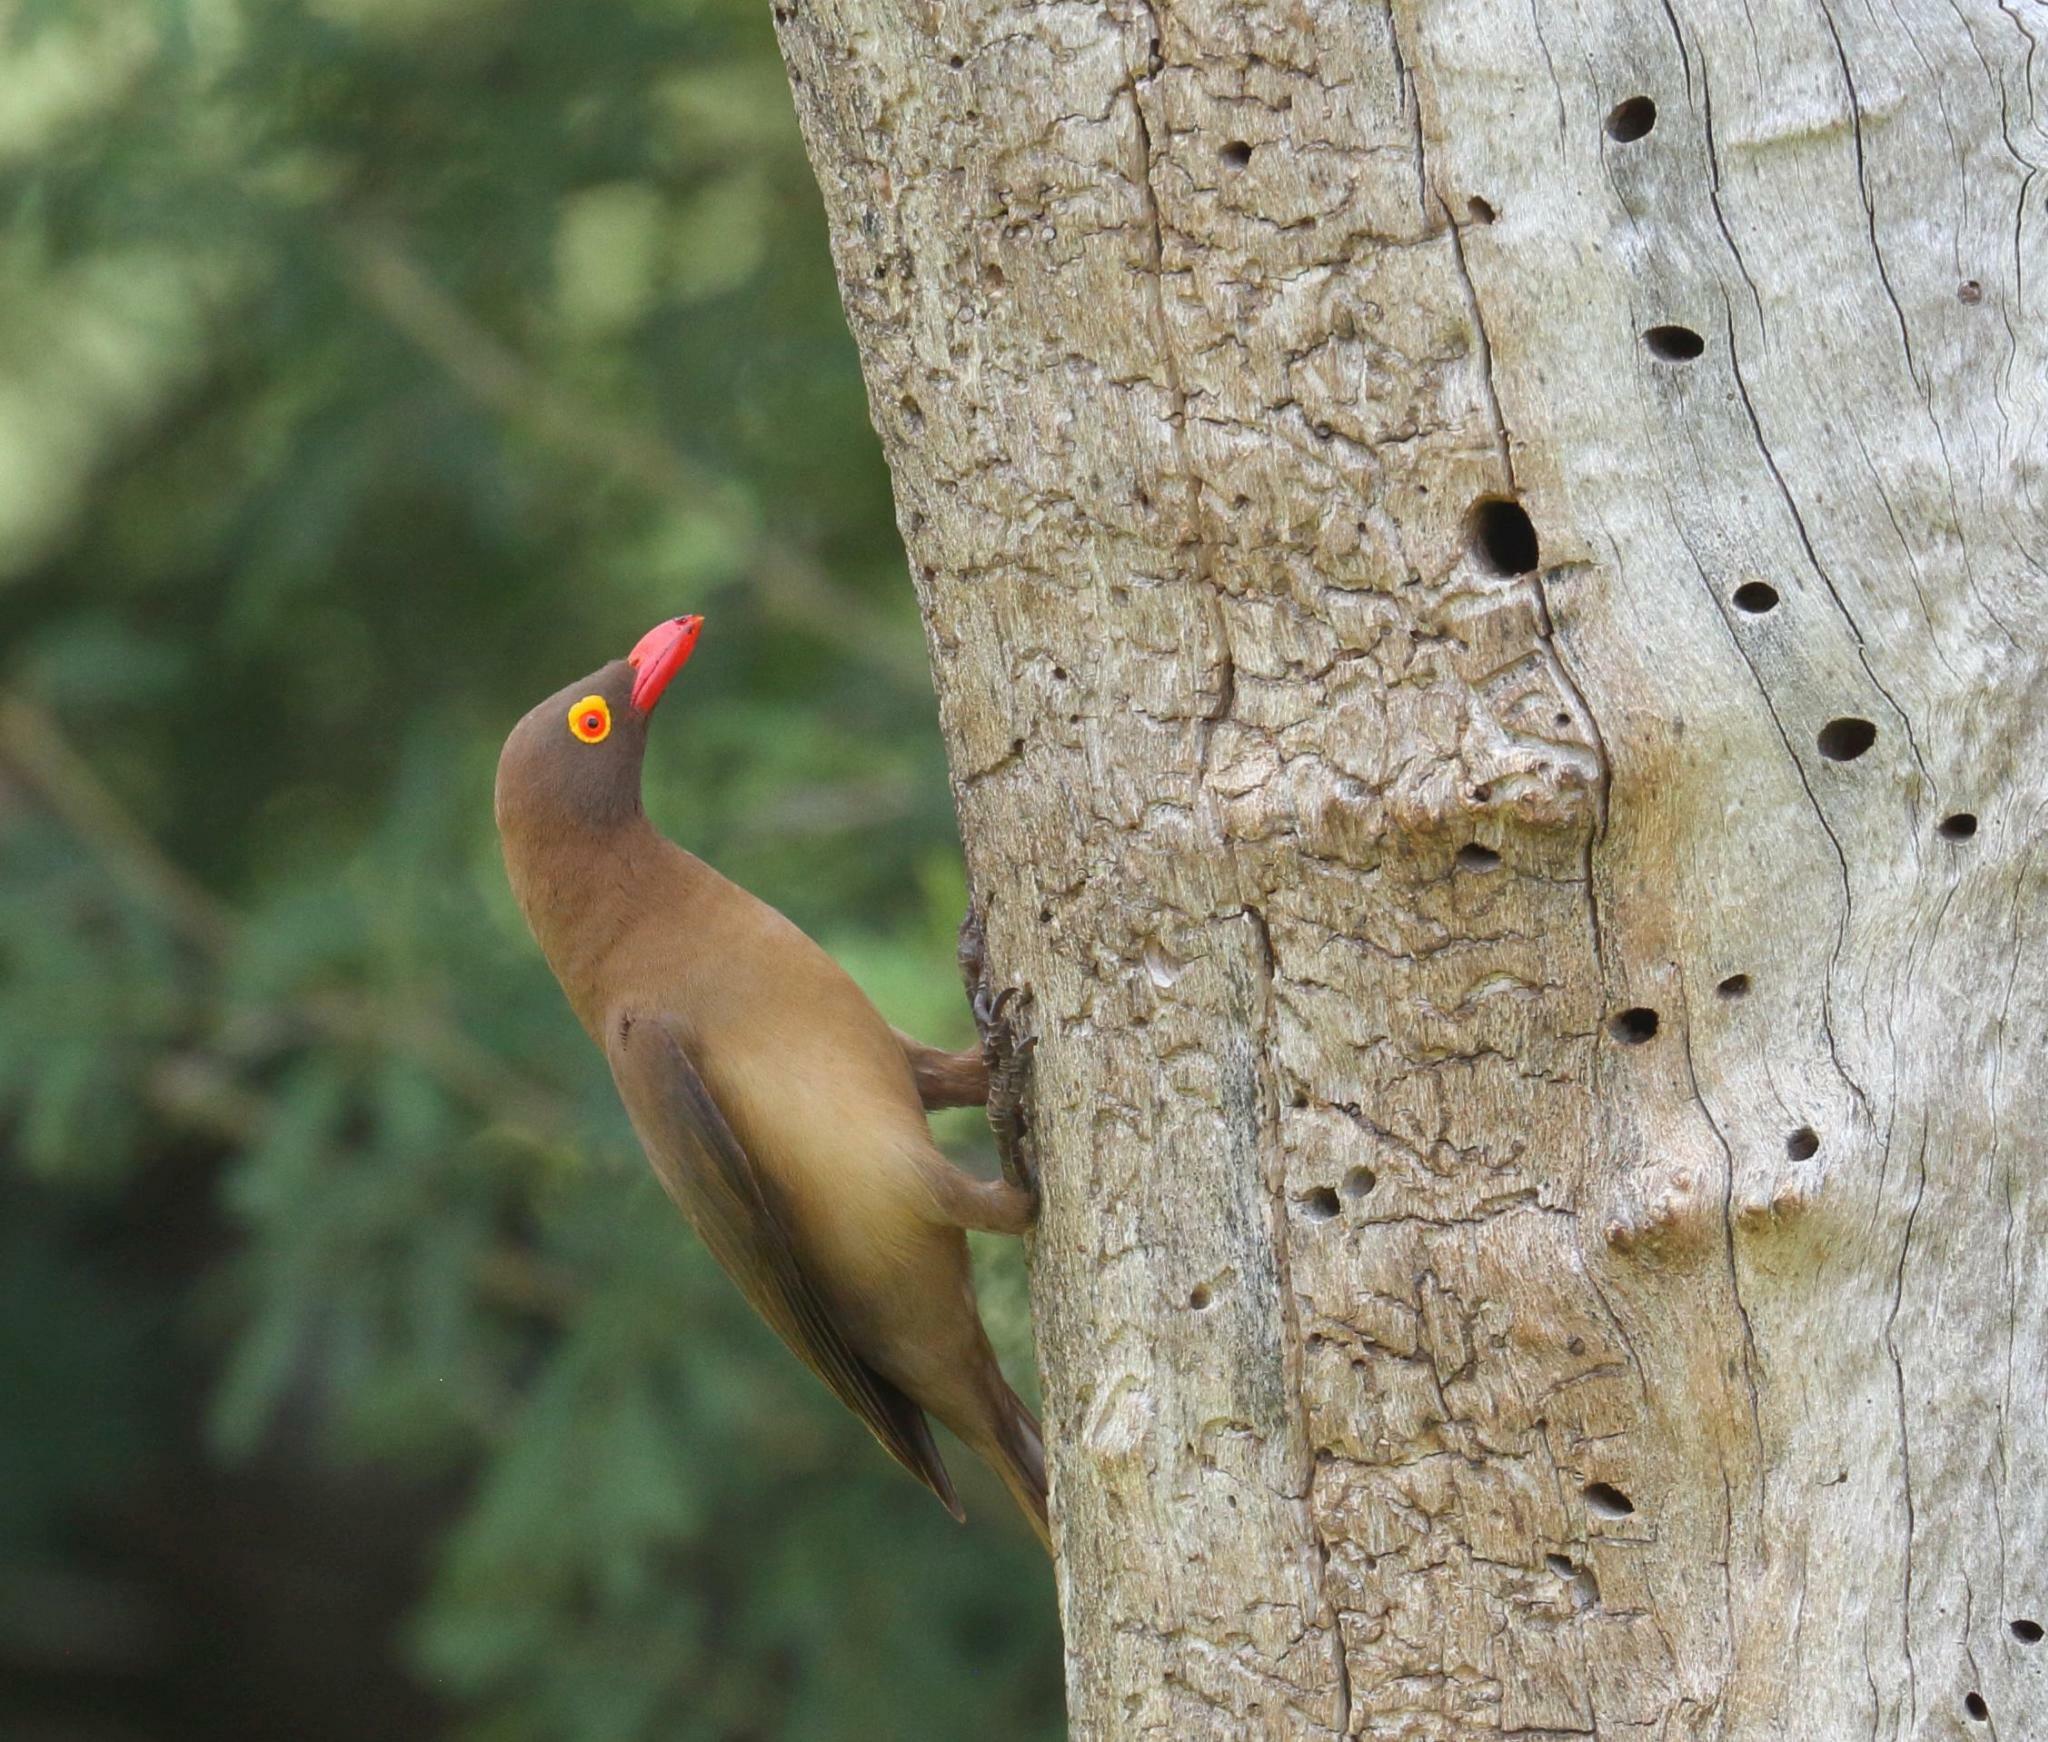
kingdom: Animalia
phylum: Chordata
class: Aves
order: Passeriformes
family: Buphagidae
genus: Buphagus
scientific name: Buphagus erythrorhynchus
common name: Red-billed oxpecker
